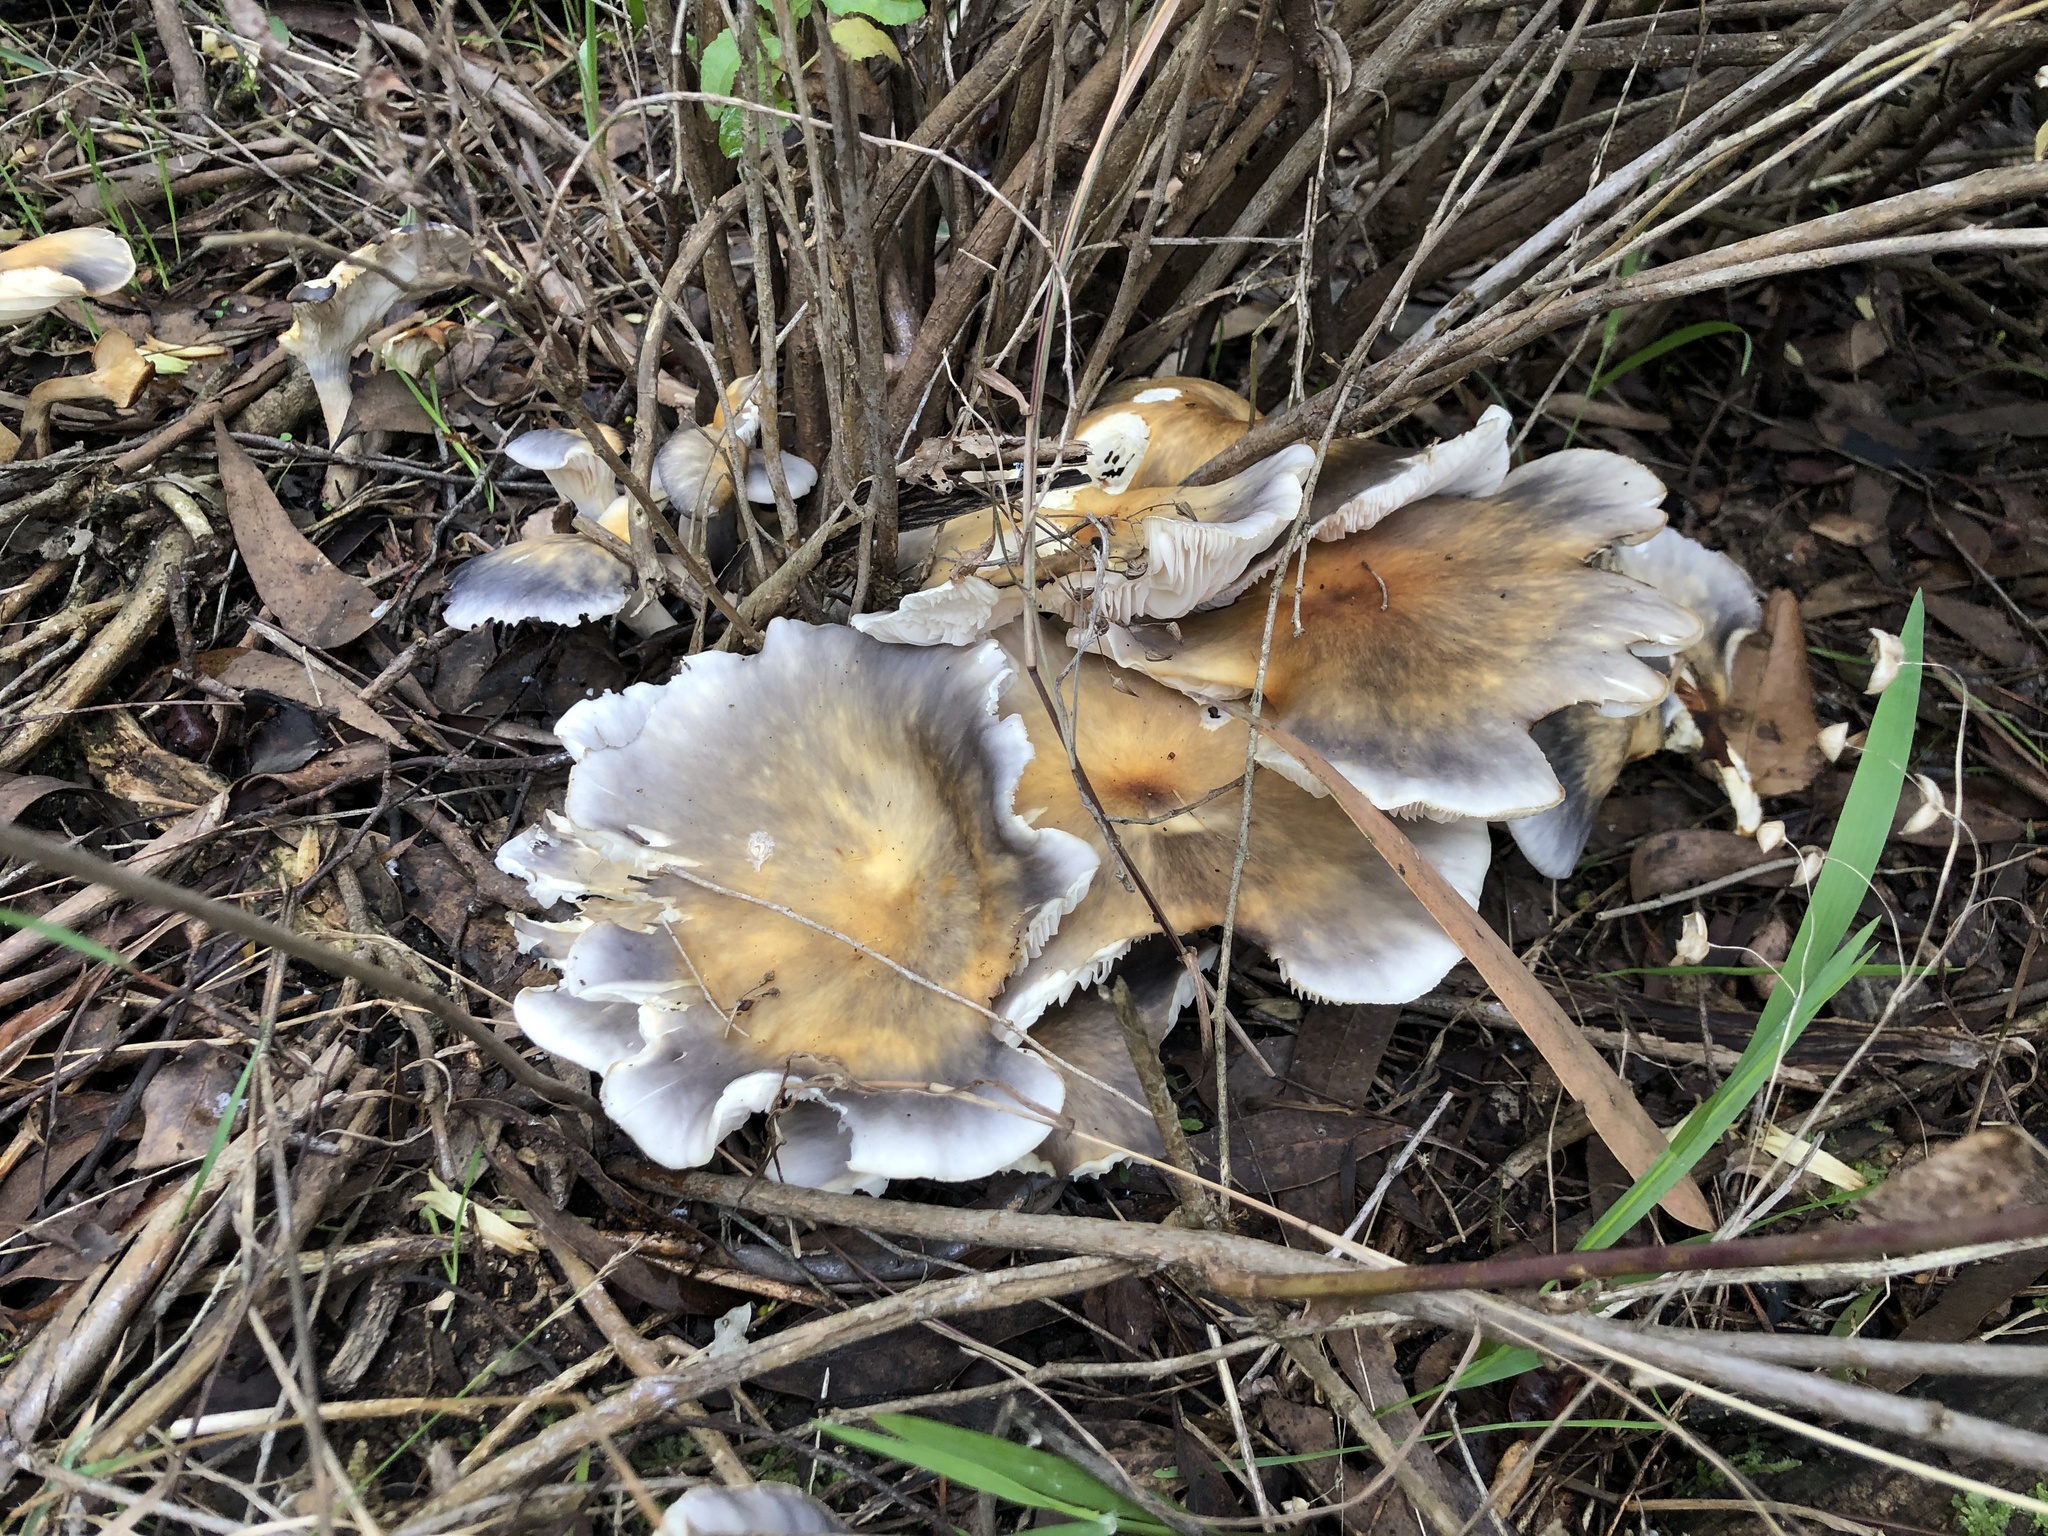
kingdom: Fungi
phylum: Basidiomycota
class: Agaricomycetes
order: Agaricales
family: Omphalotaceae
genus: Omphalotus
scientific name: Omphalotus nidiformis
